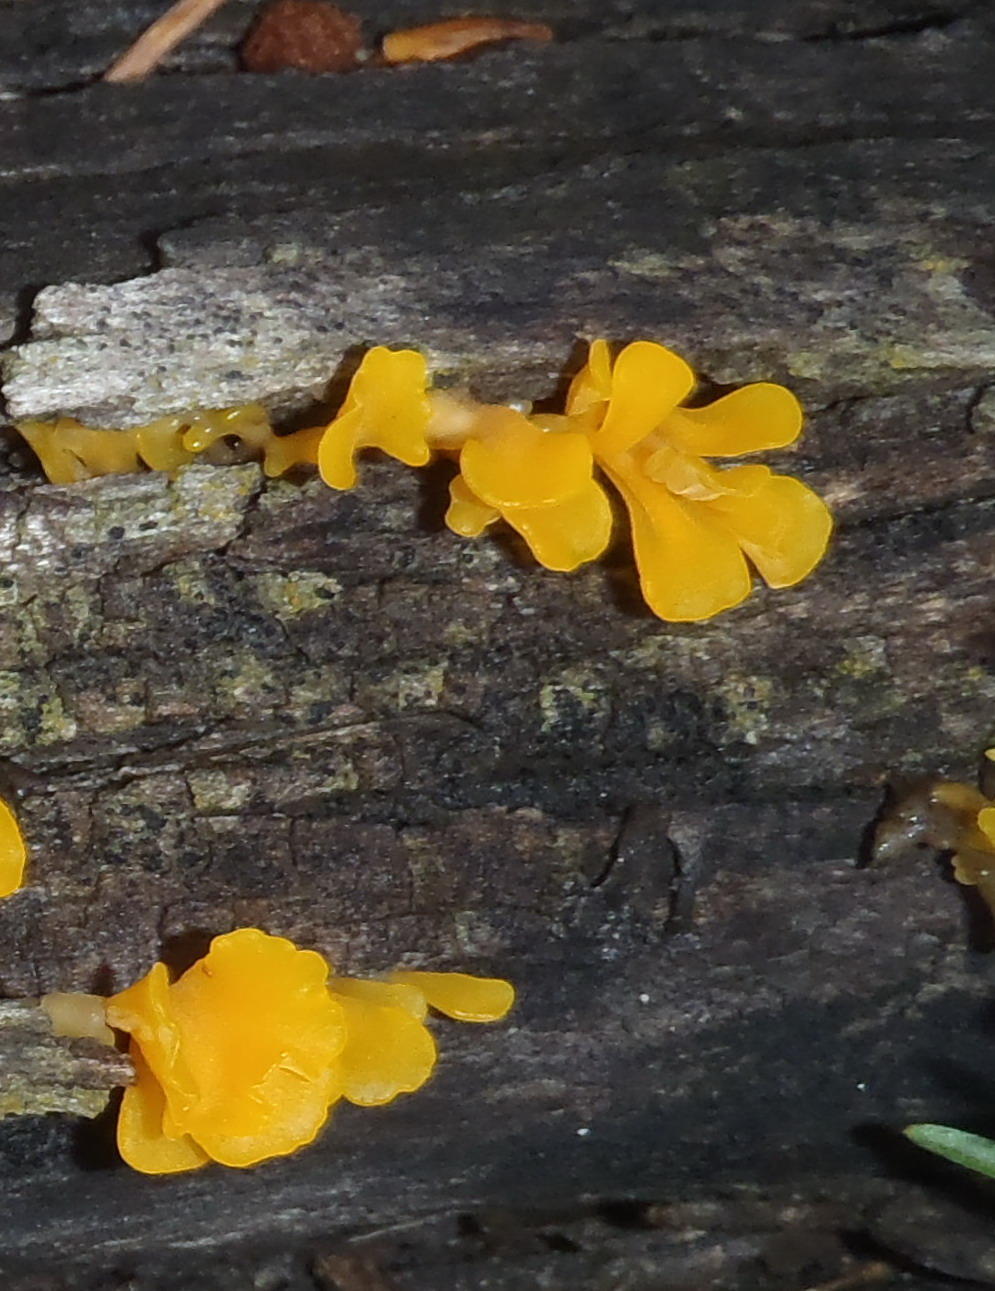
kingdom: Fungi
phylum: Basidiomycota
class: Dacrymycetes
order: Dacrymycetales
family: Dacrymycetaceae
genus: Dacrymyces
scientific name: Dacrymyces spathularius
